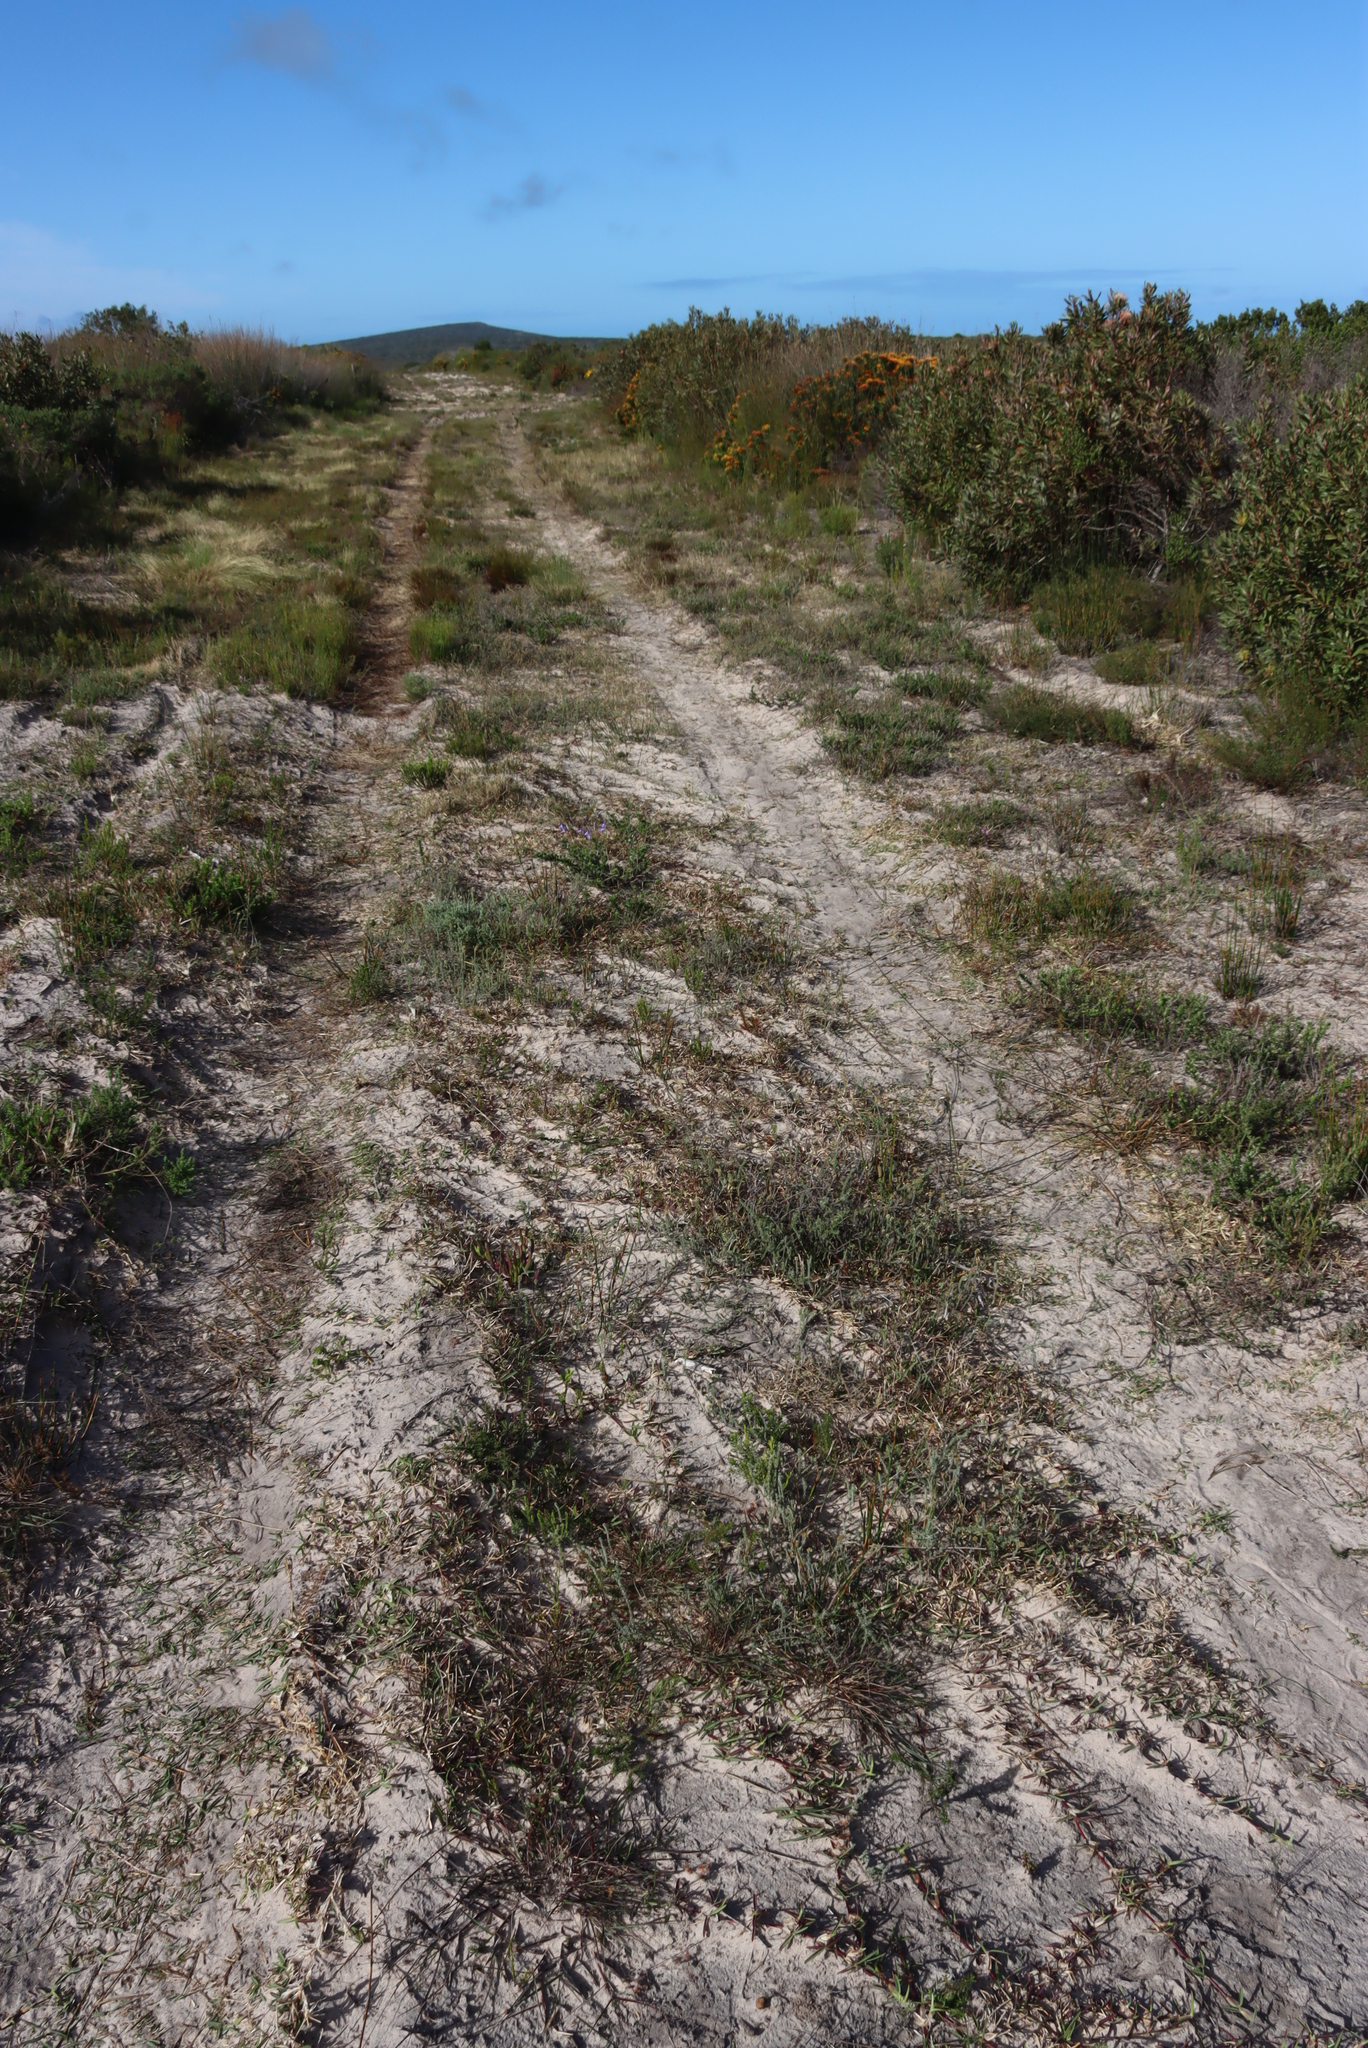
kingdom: Plantae
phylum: Tracheophyta
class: Liliopsida
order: Poales
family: Poaceae
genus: Stenotaphrum
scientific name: Stenotaphrum secundatum
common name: St. augustine grass
